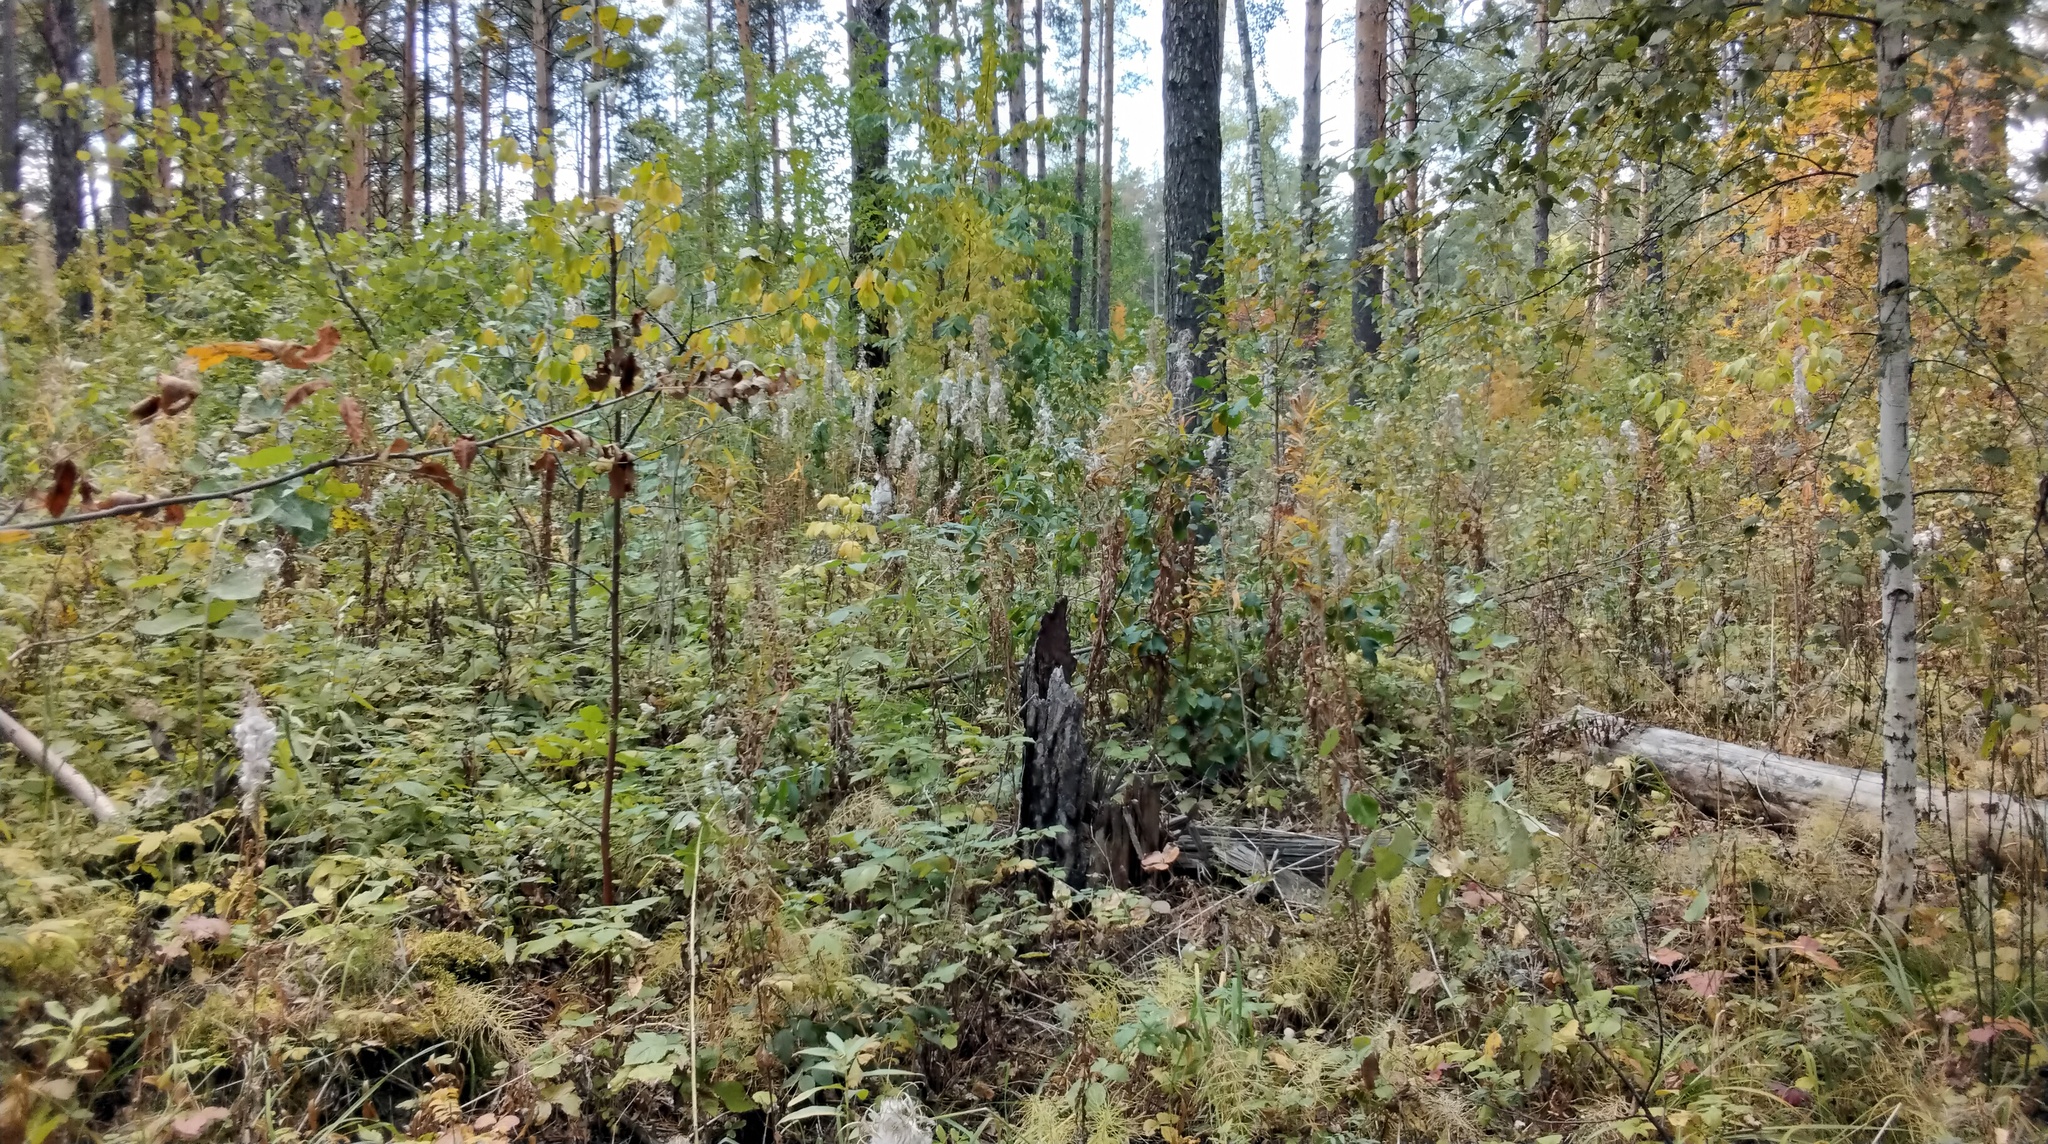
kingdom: Plantae
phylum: Tracheophyta
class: Magnoliopsida
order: Myrtales
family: Onagraceae
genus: Chamaenerion
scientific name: Chamaenerion angustifolium
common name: Fireweed
